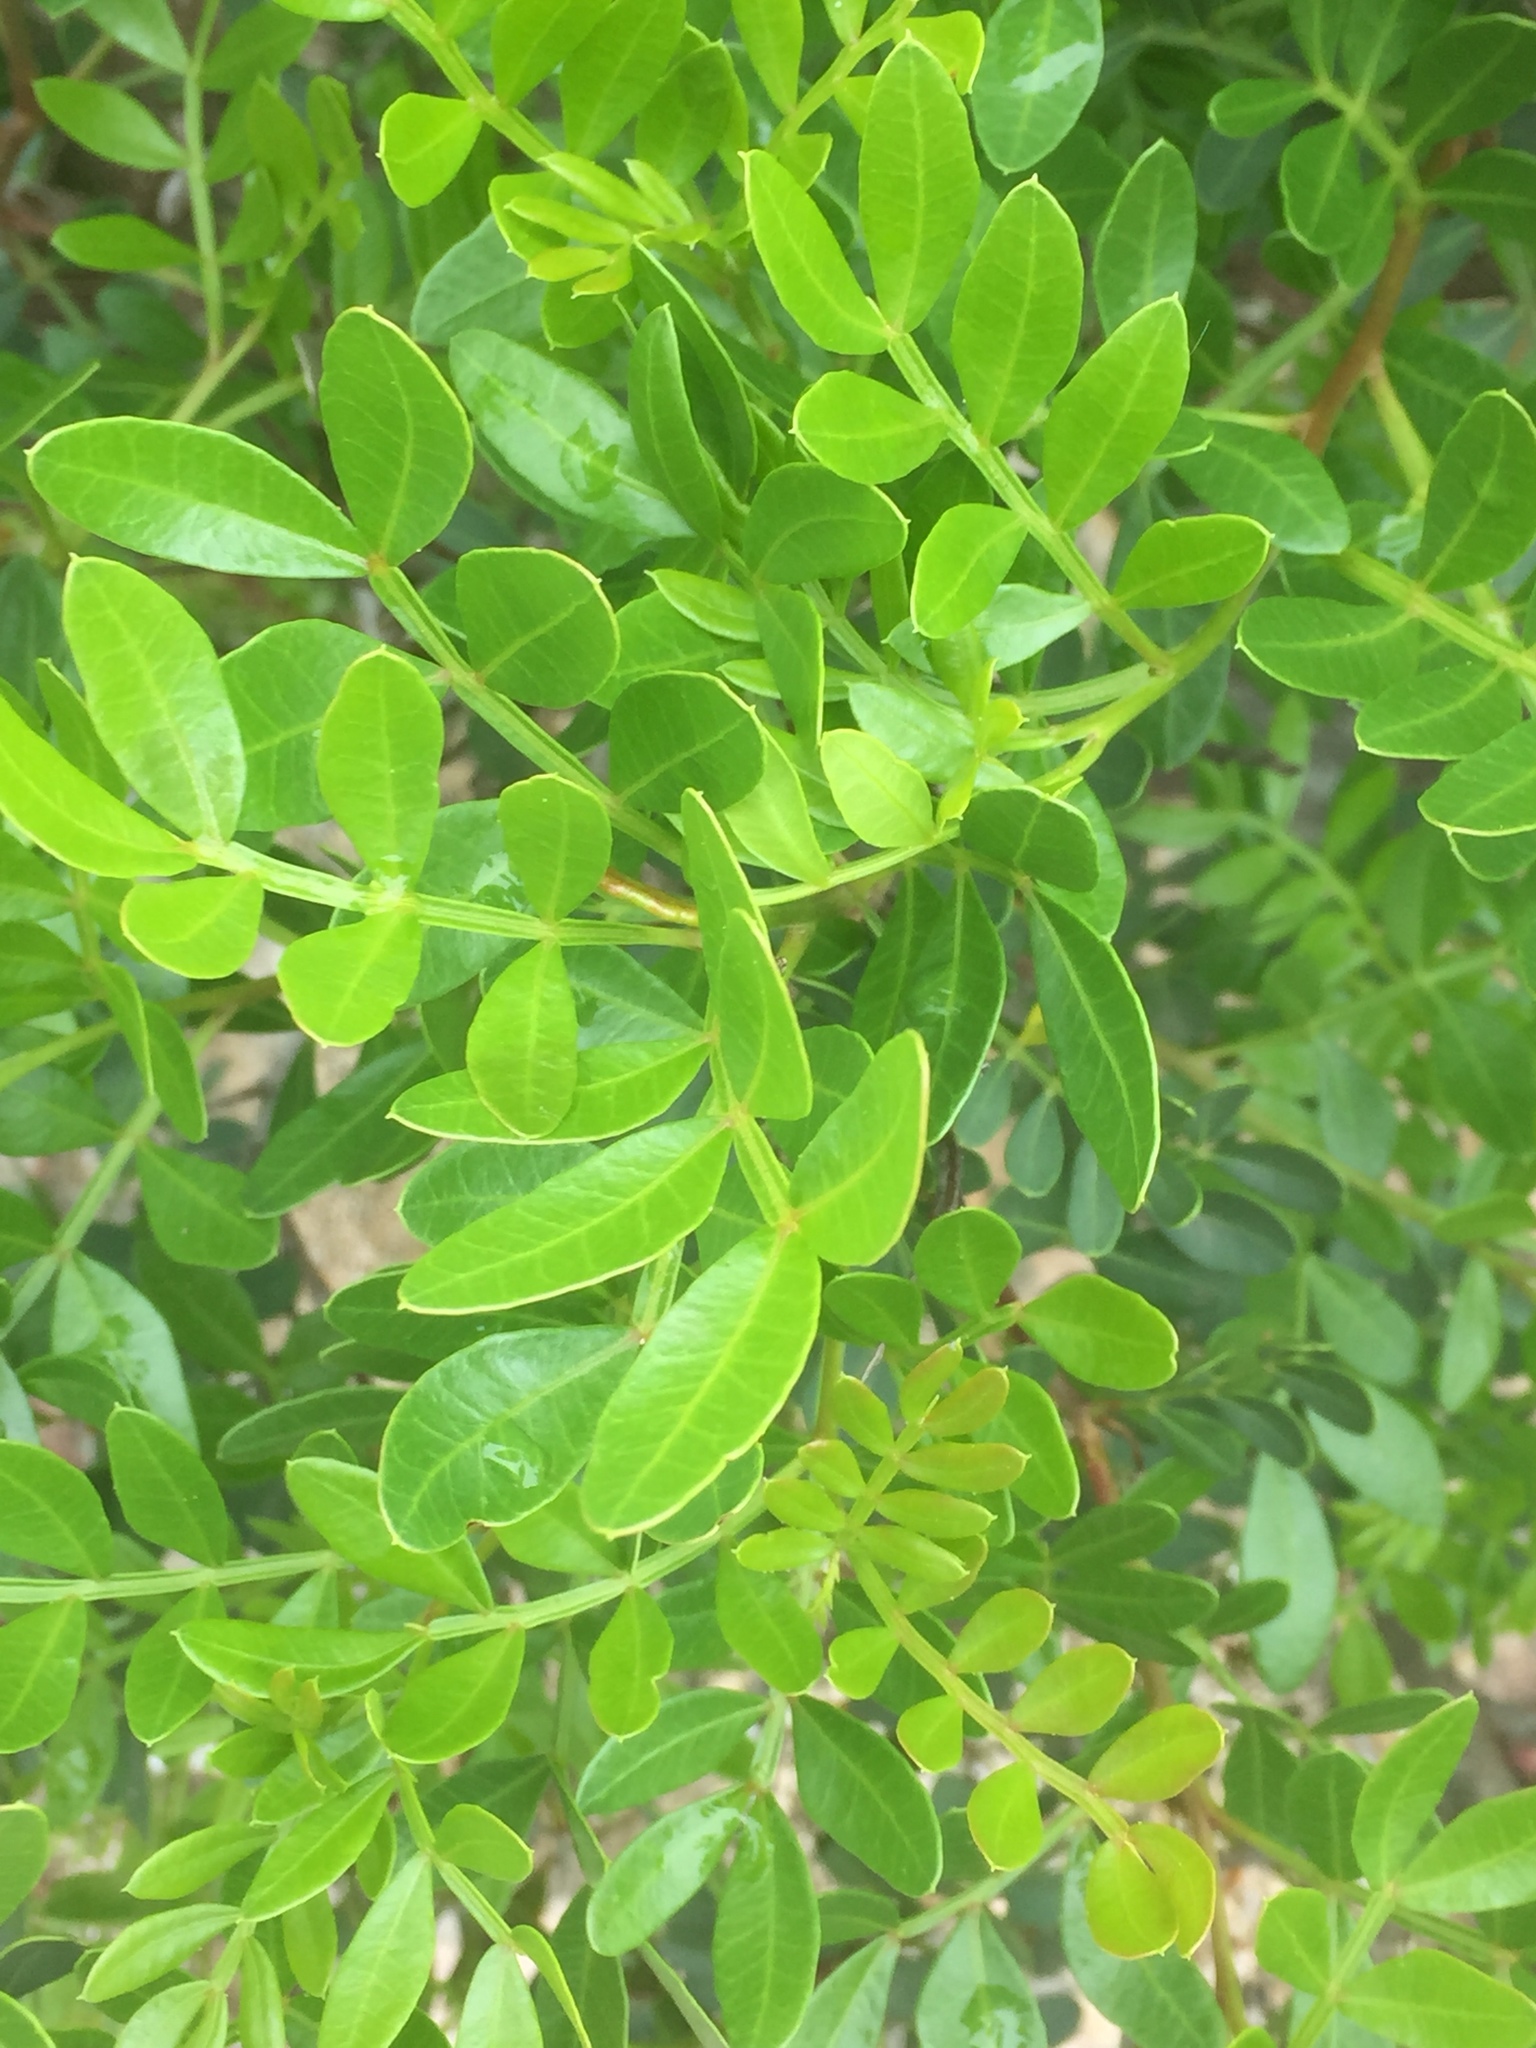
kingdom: Plantae
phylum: Tracheophyta
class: Magnoliopsida
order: Sapindales
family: Anacardiaceae
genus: Pistacia
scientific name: Pistacia lentiscus
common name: Lentisk
